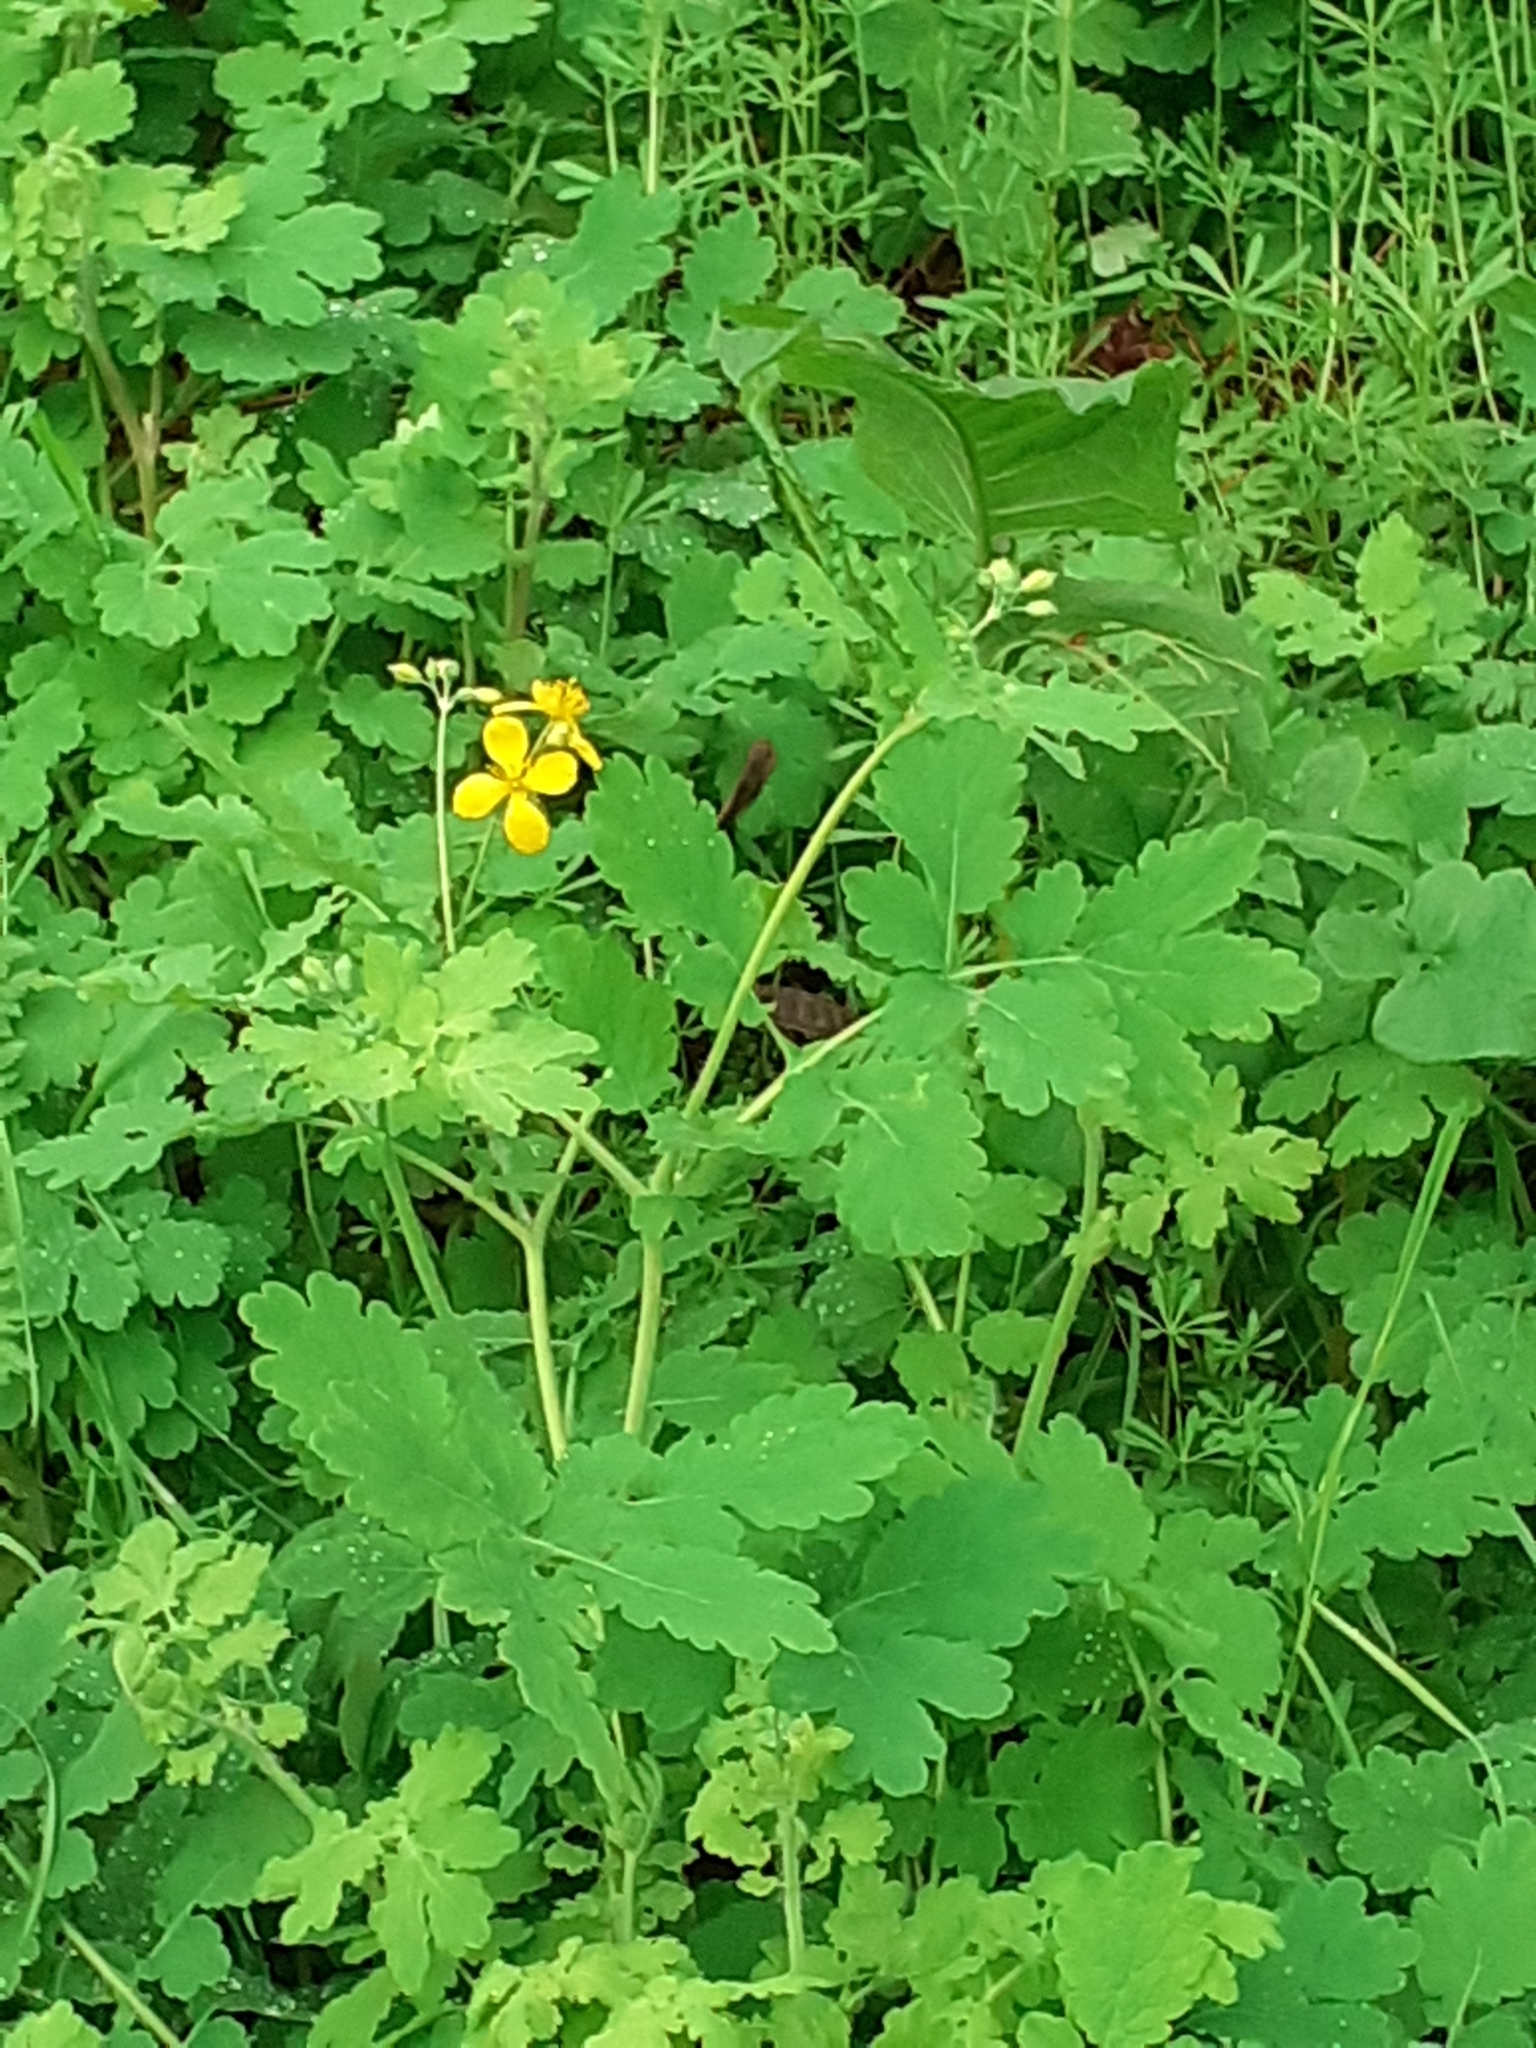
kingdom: Plantae
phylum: Tracheophyta
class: Magnoliopsida
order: Ranunculales
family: Papaveraceae
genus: Chelidonium
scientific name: Chelidonium majus
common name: Greater celandine
